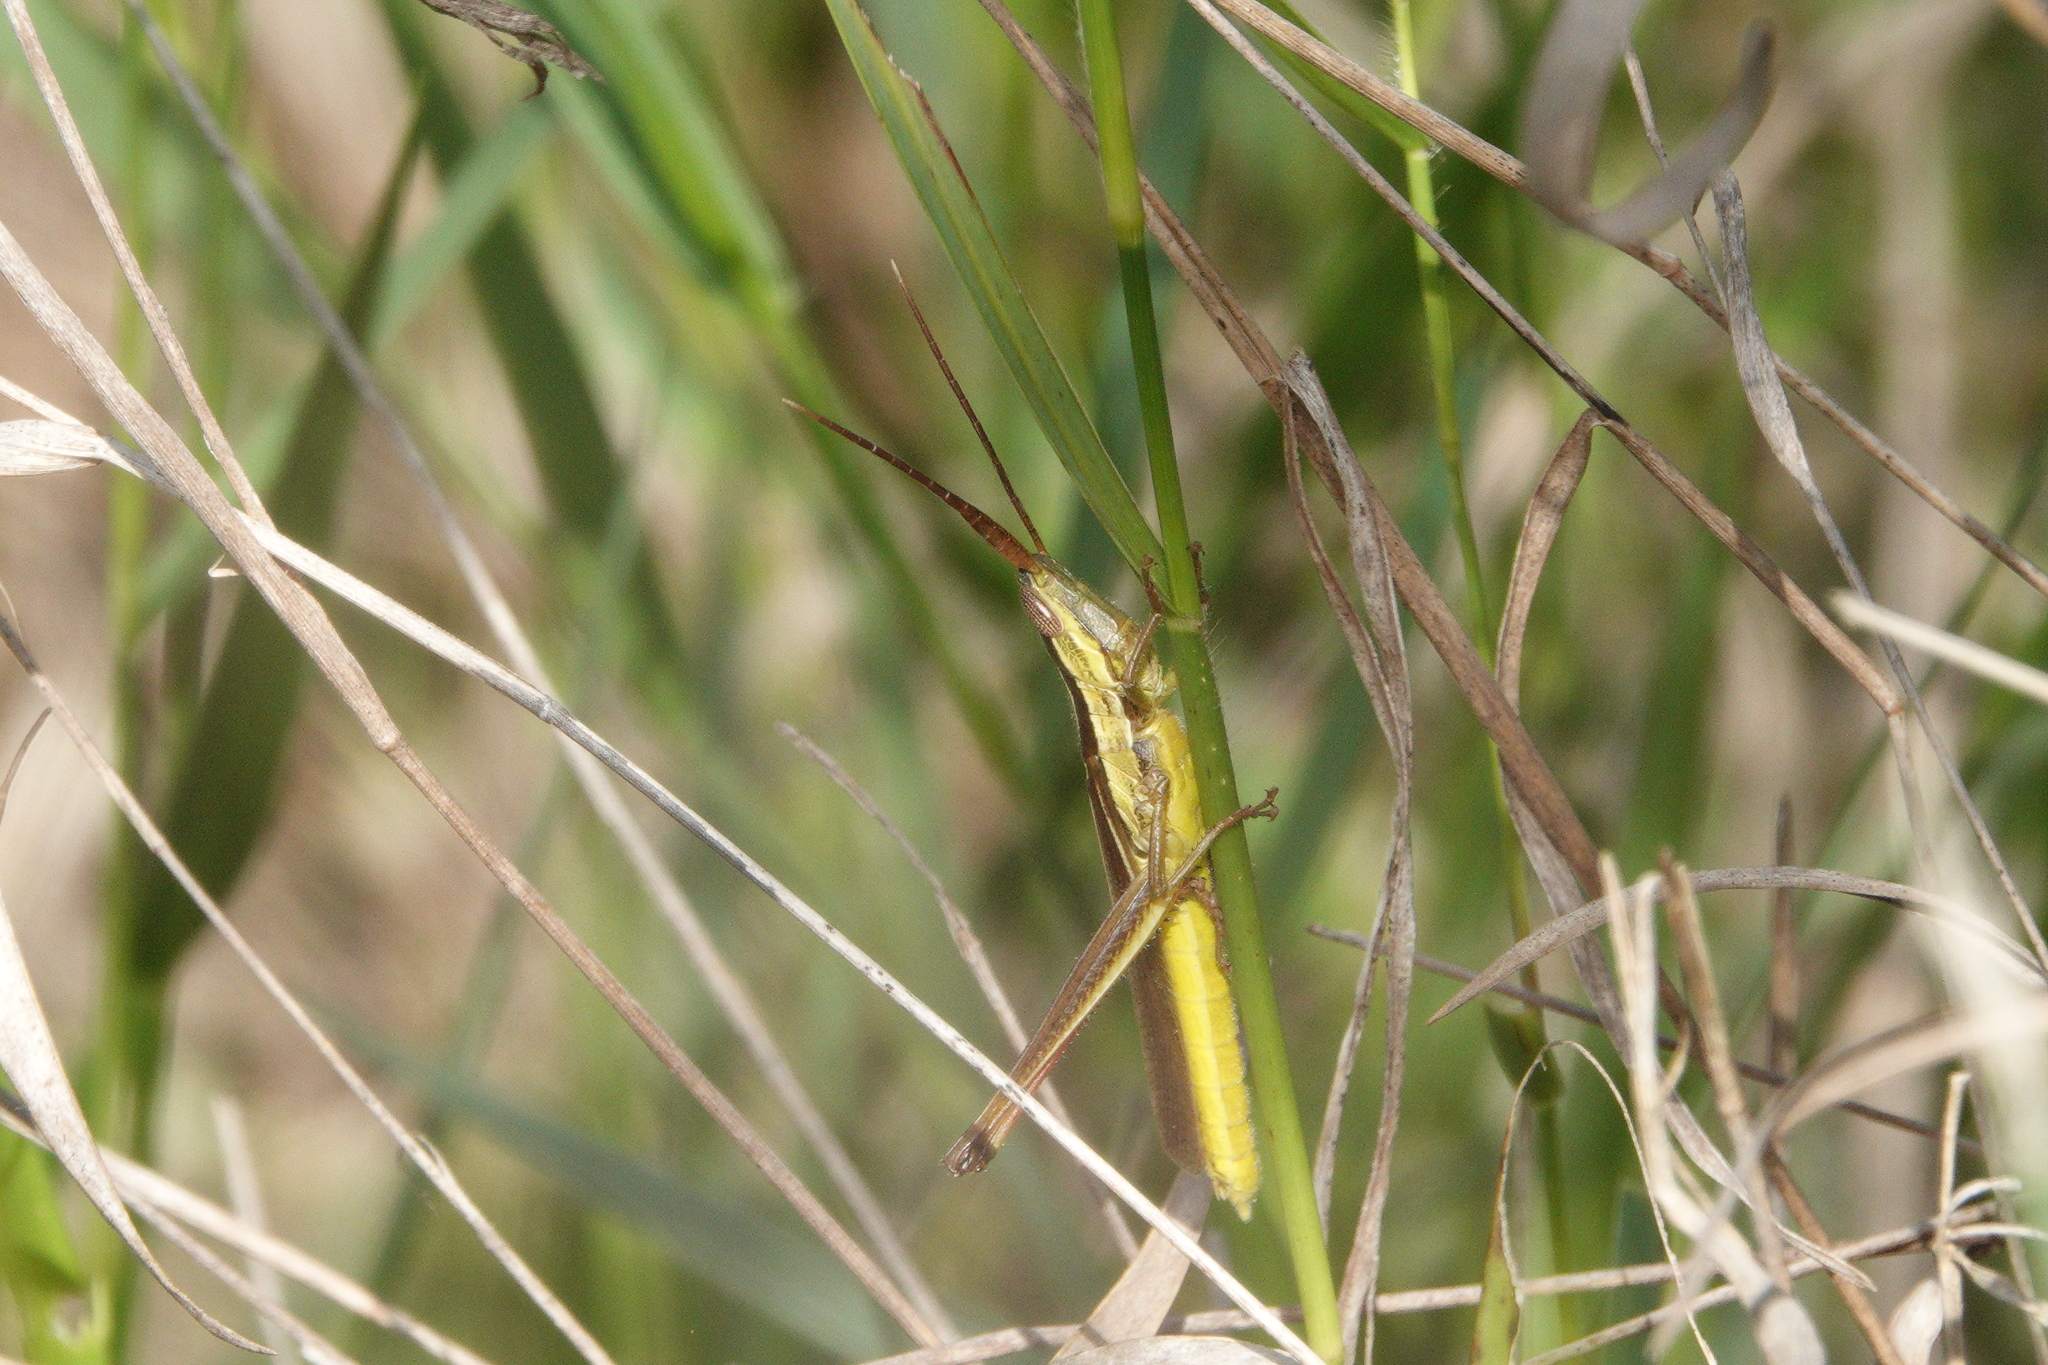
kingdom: Animalia
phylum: Arthropoda
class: Insecta
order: Orthoptera
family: Acrididae
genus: Mermiria
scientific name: Mermiria intertexta
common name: Eastern mermiria grasshopper
